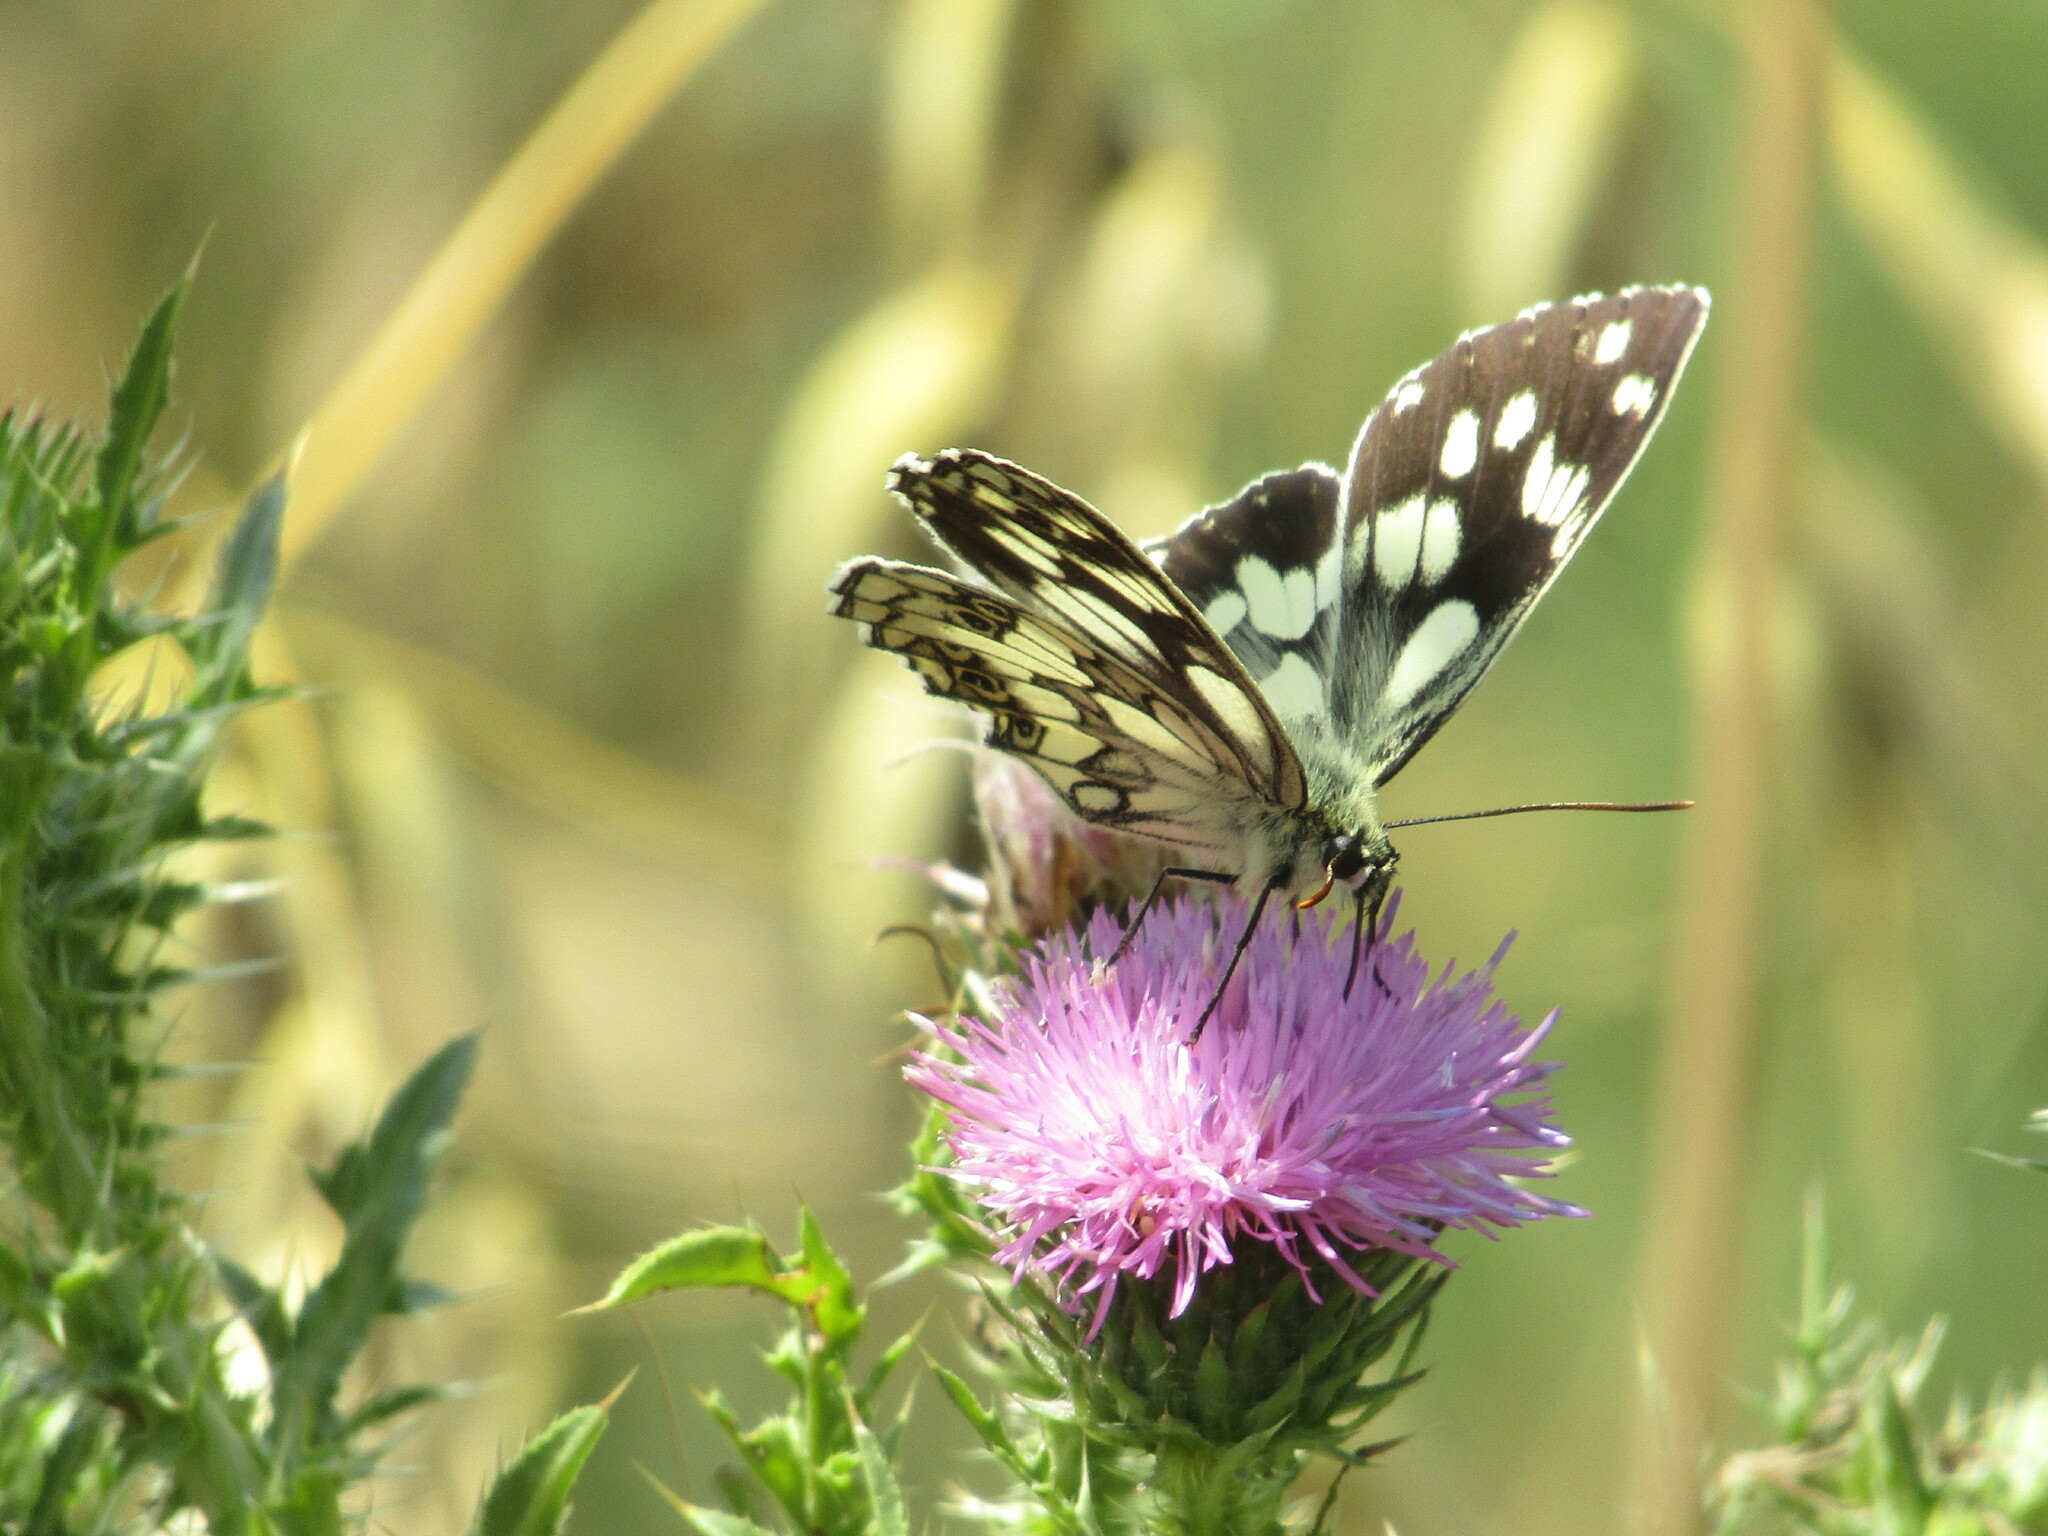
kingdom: Animalia
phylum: Arthropoda
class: Insecta
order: Lepidoptera
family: Nymphalidae
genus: Melanargia
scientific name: Melanargia galathea
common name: Marbled white
